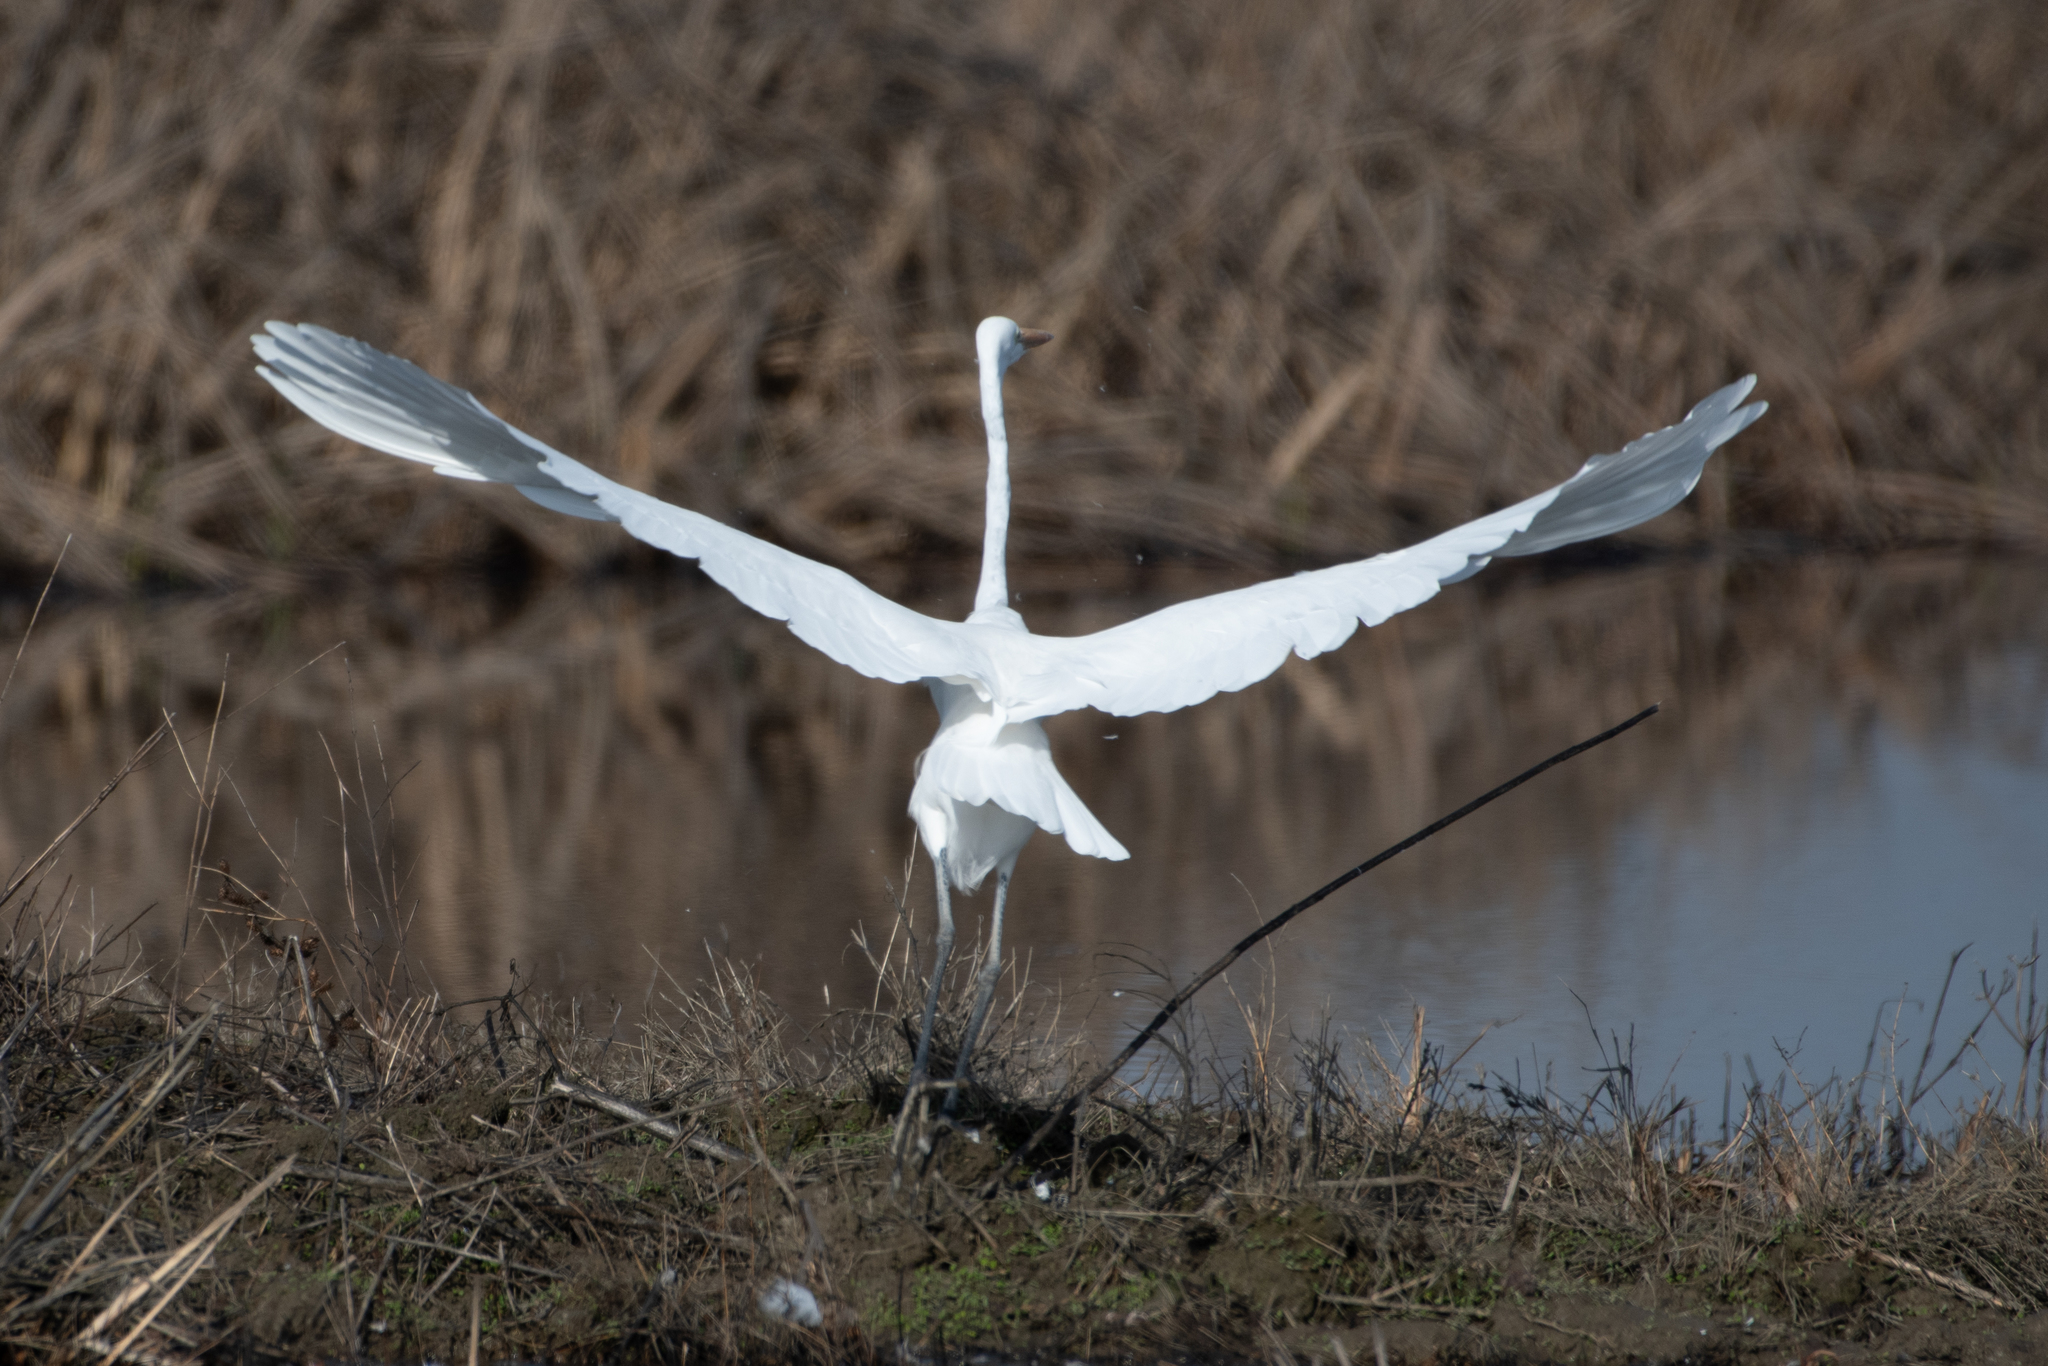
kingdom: Animalia
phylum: Chordata
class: Aves
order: Pelecaniformes
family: Ardeidae
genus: Ardea
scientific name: Ardea alba
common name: Great egret
